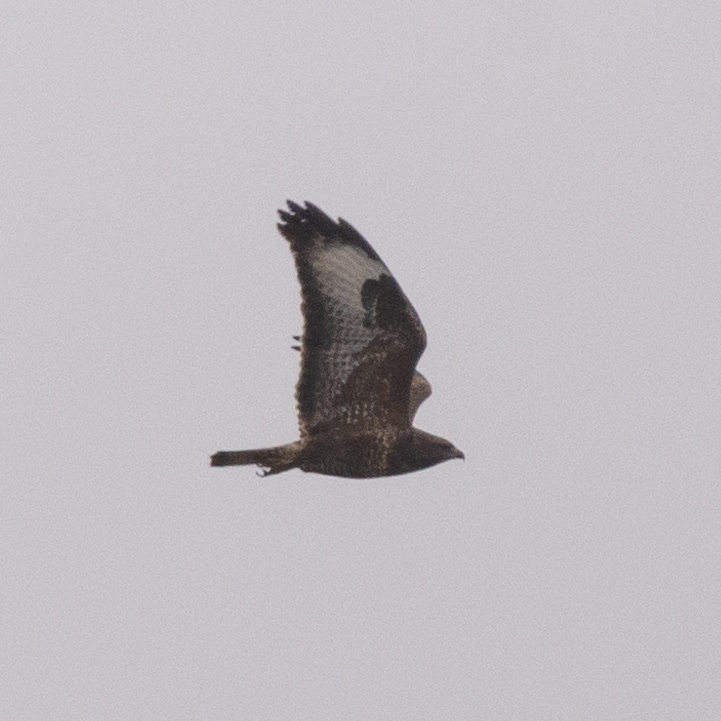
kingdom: Animalia
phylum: Chordata
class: Aves
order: Accipitriformes
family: Accipitridae
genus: Buteo
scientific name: Buteo buteo
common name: Common buzzard
